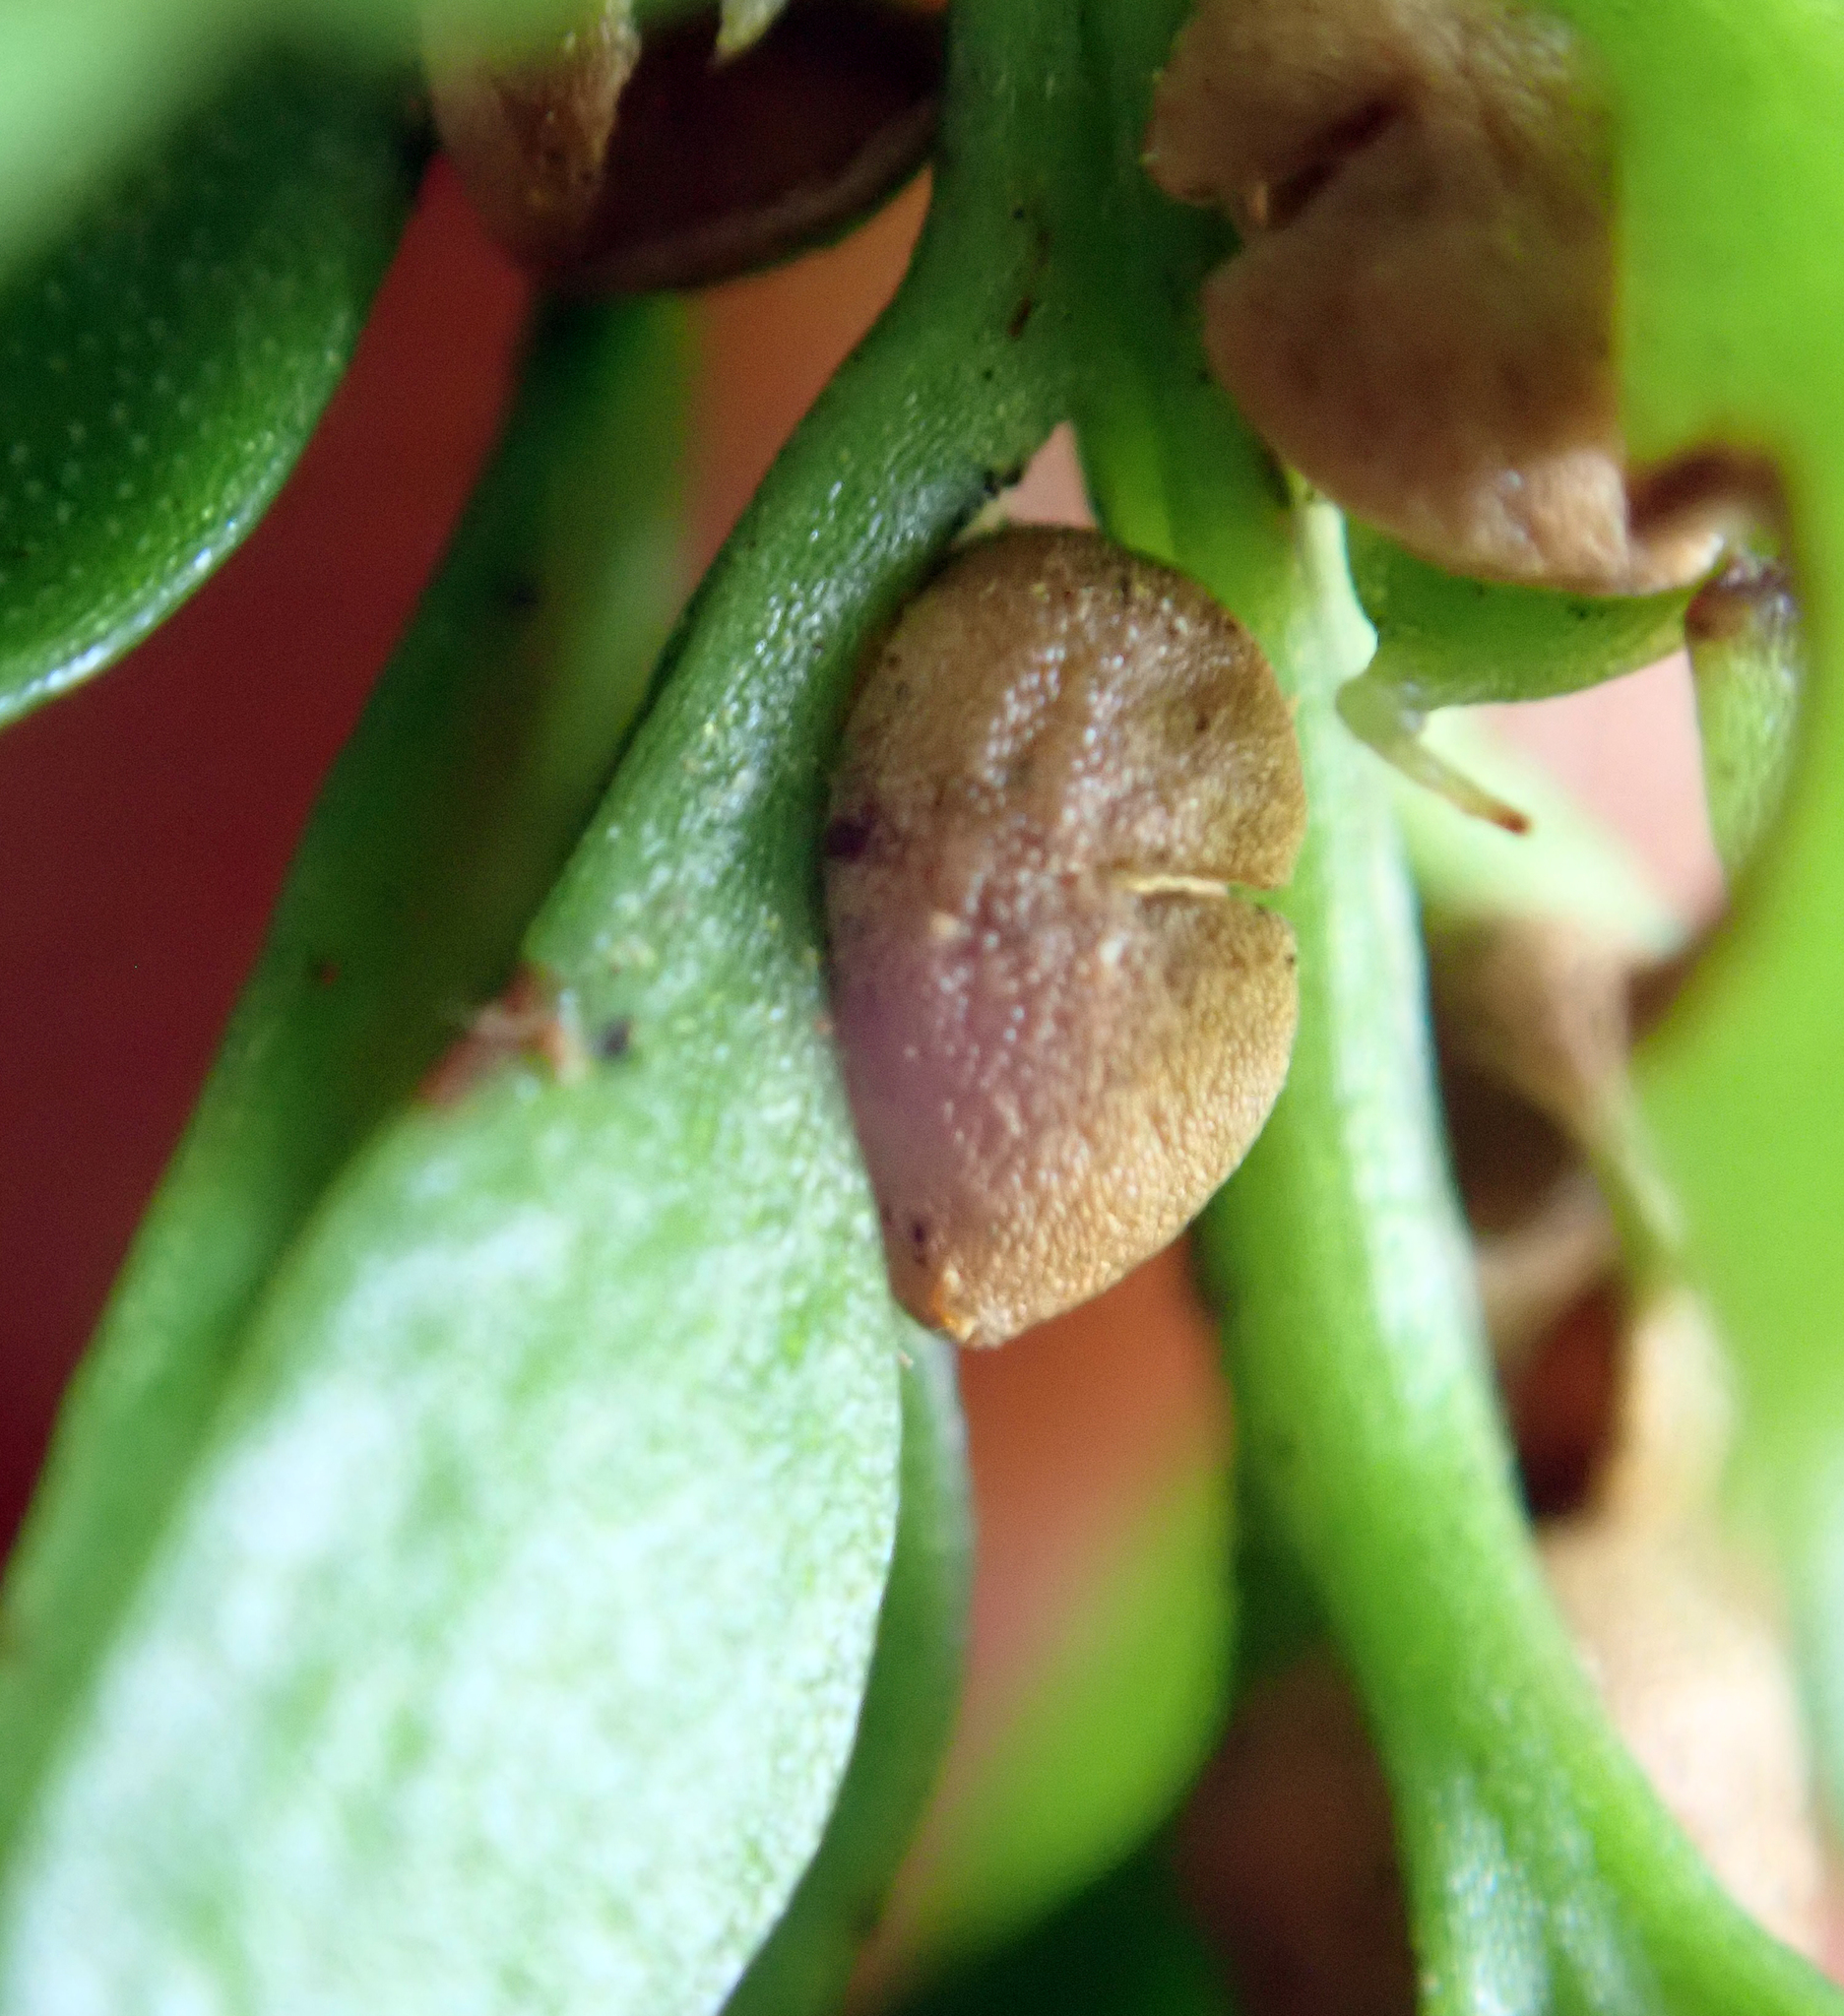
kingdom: Plantae
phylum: Tracheophyta
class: Polypodiopsida
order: Psilotales
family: Psilotaceae
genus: Tmesipteris
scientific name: Tmesipteris lanceolata
